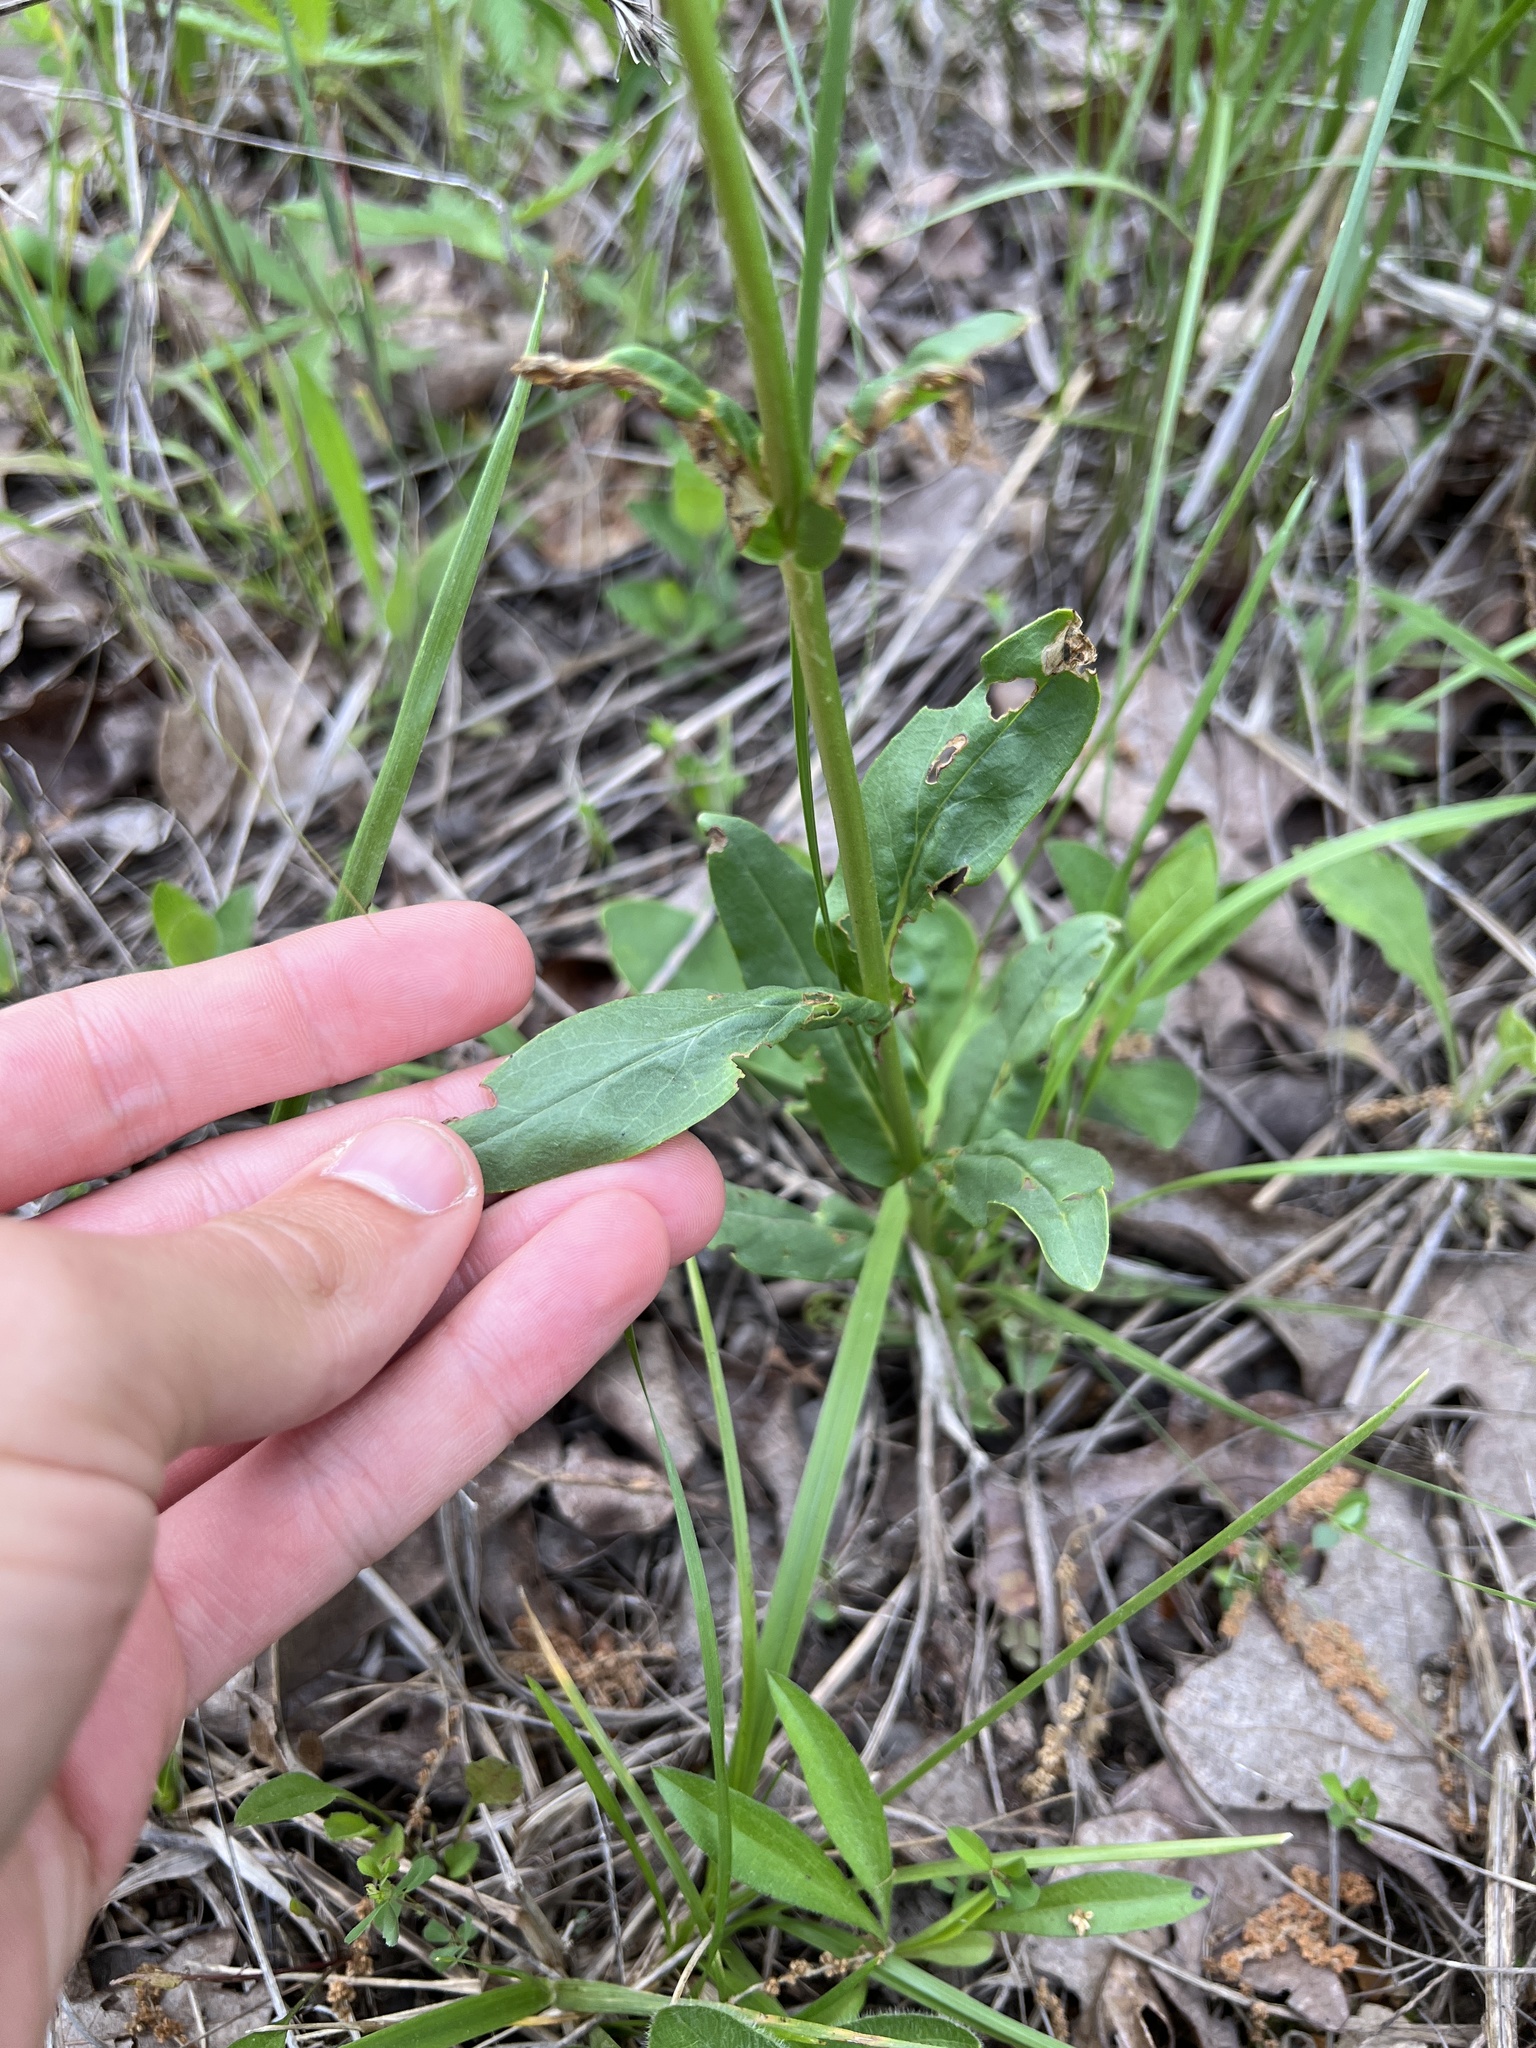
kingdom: Plantae
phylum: Tracheophyta
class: Magnoliopsida
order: Lamiales
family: Plantaginaceae
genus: Penstemon
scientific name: Penstemon tubaeflorus
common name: White wand beardtongue
